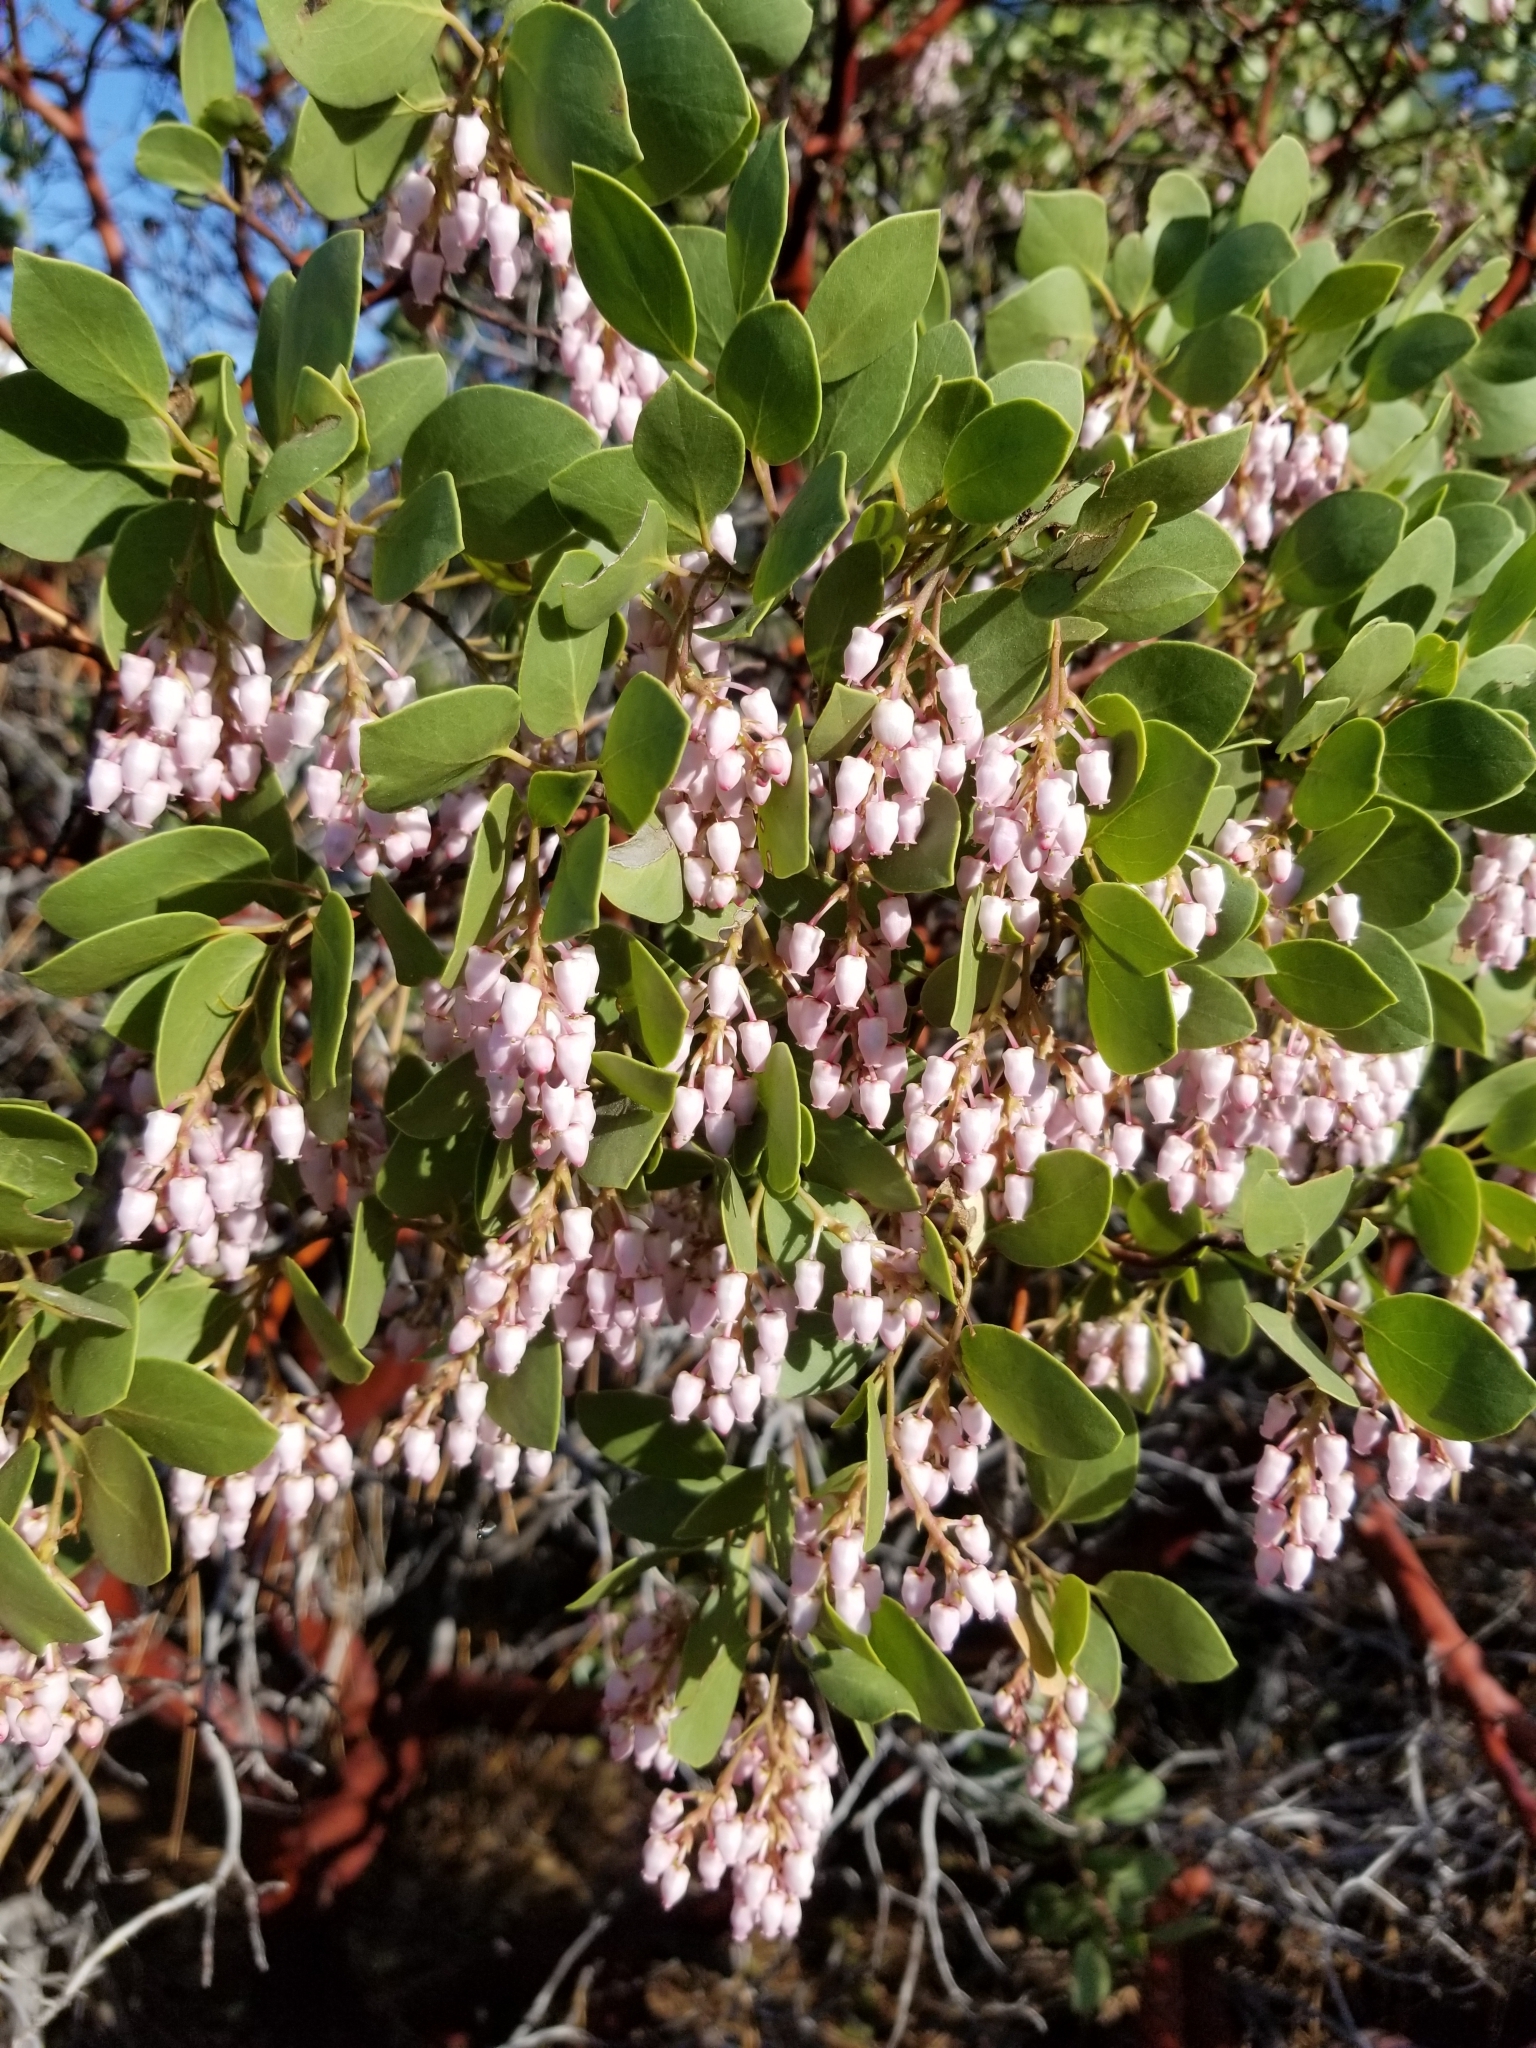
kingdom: Plantae
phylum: Tracheophyta
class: Magnoliopsida
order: Ericales
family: Ericaceae
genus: Arctostaphylos
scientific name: Arctostaphylos patula
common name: Green-leaf manzanita
